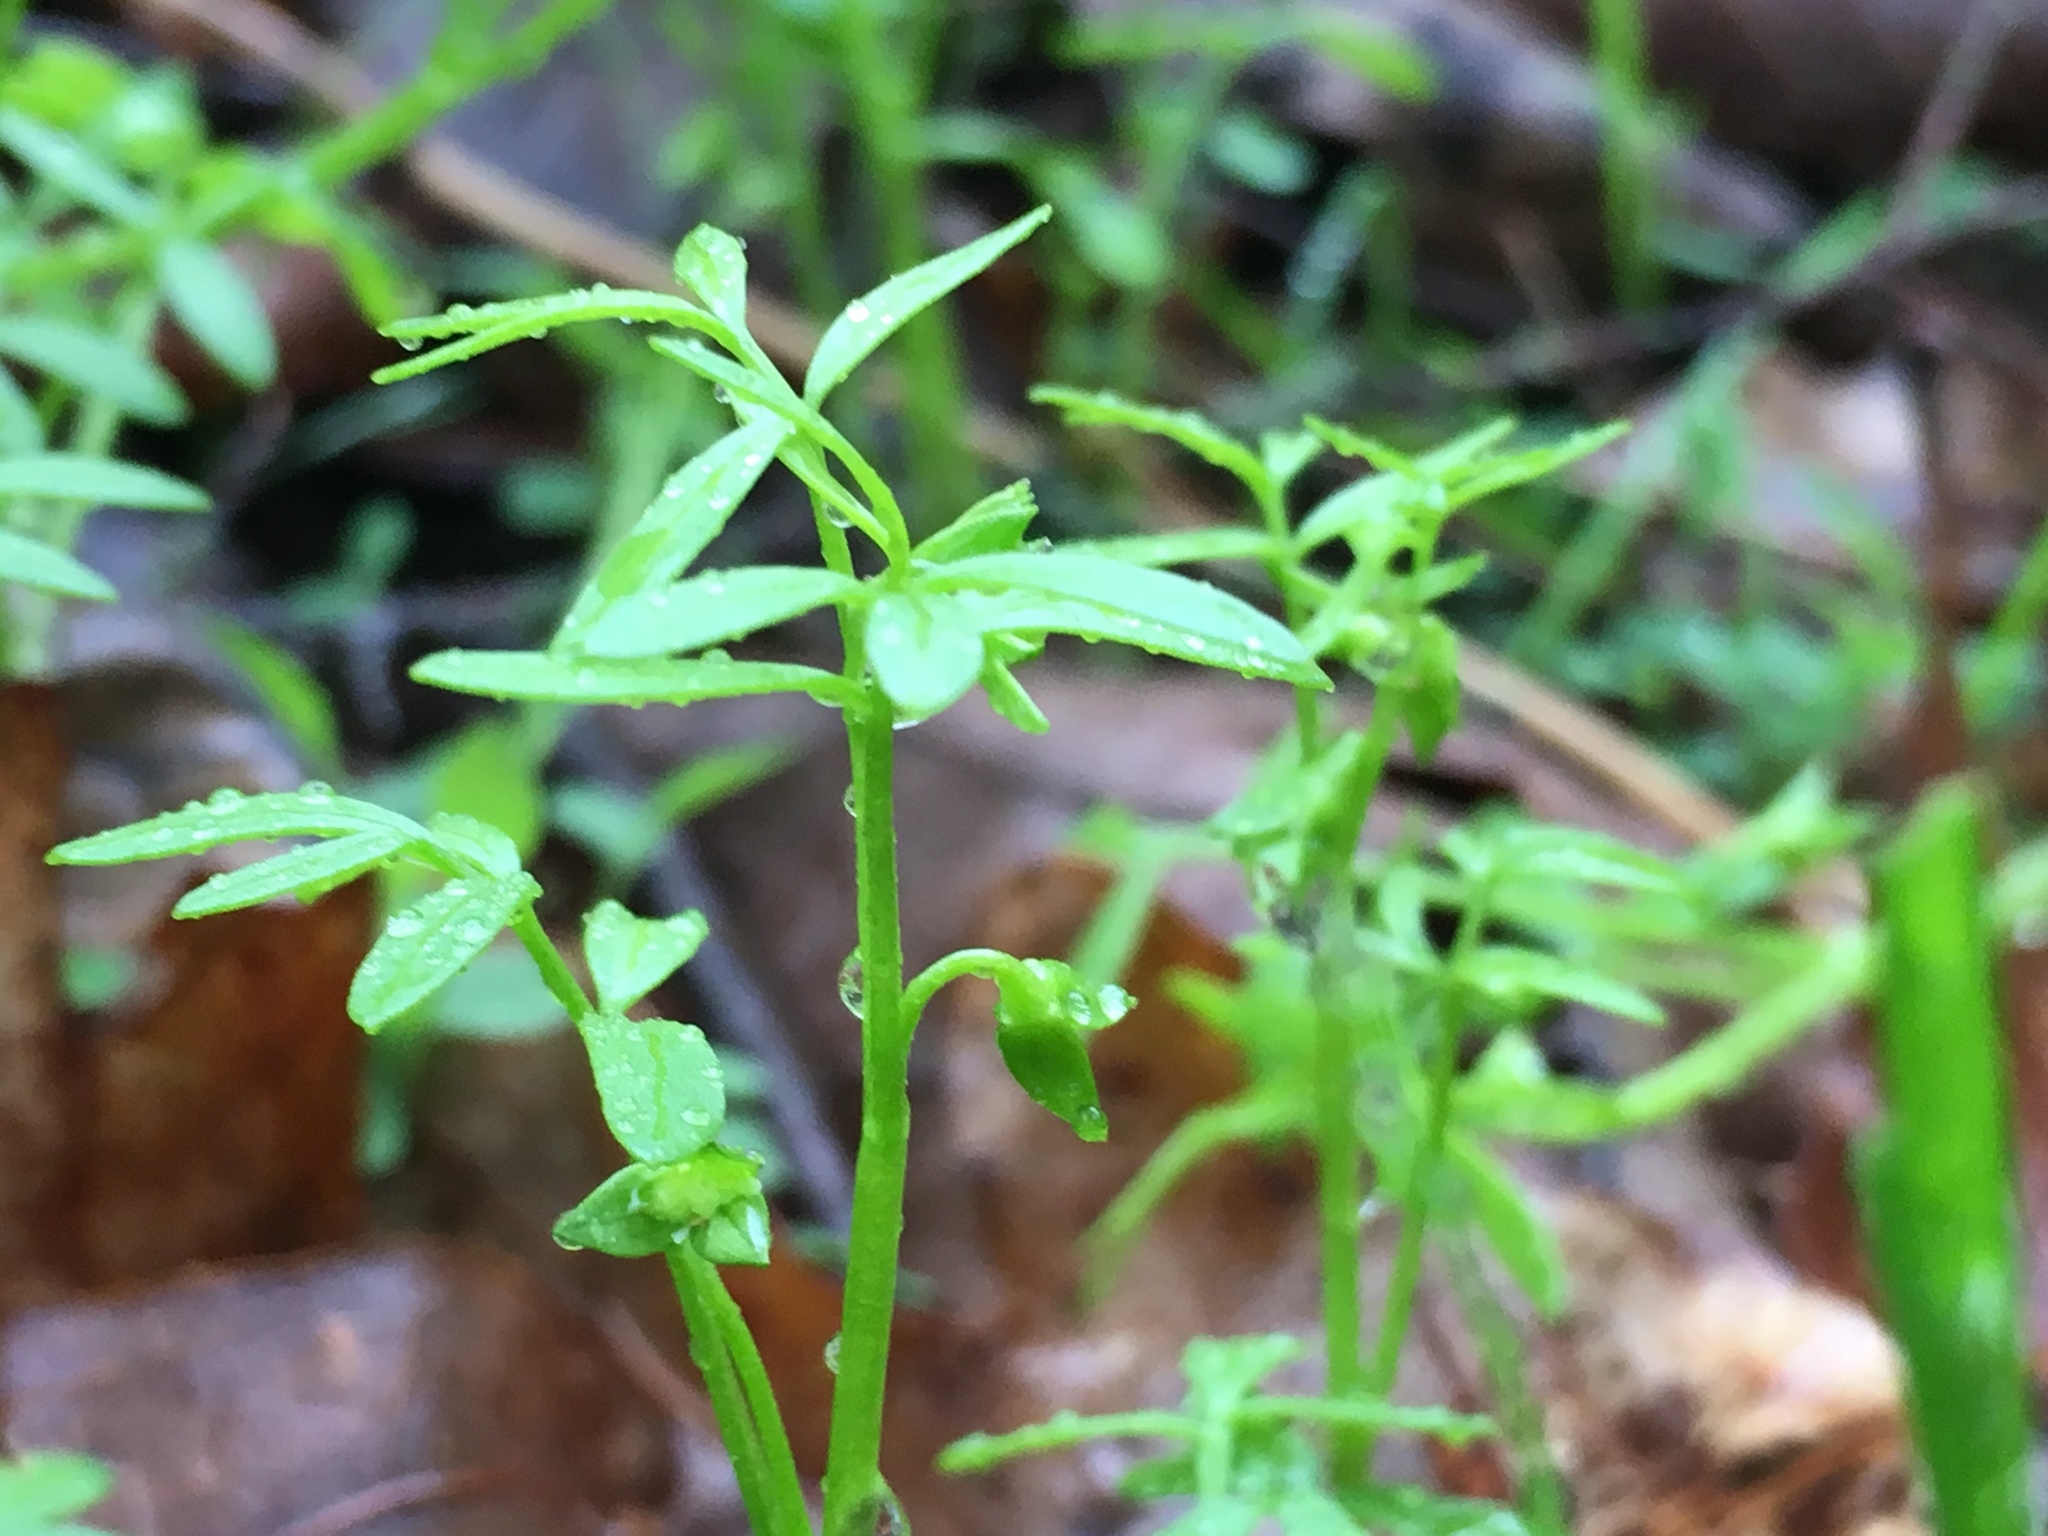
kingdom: Plantae
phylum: Tracheophyta
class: Magnoliopsida
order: Brassicales
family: Limnanthaceae
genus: Floerkea
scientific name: Floerkea proserpinacoides
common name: False mermaid
